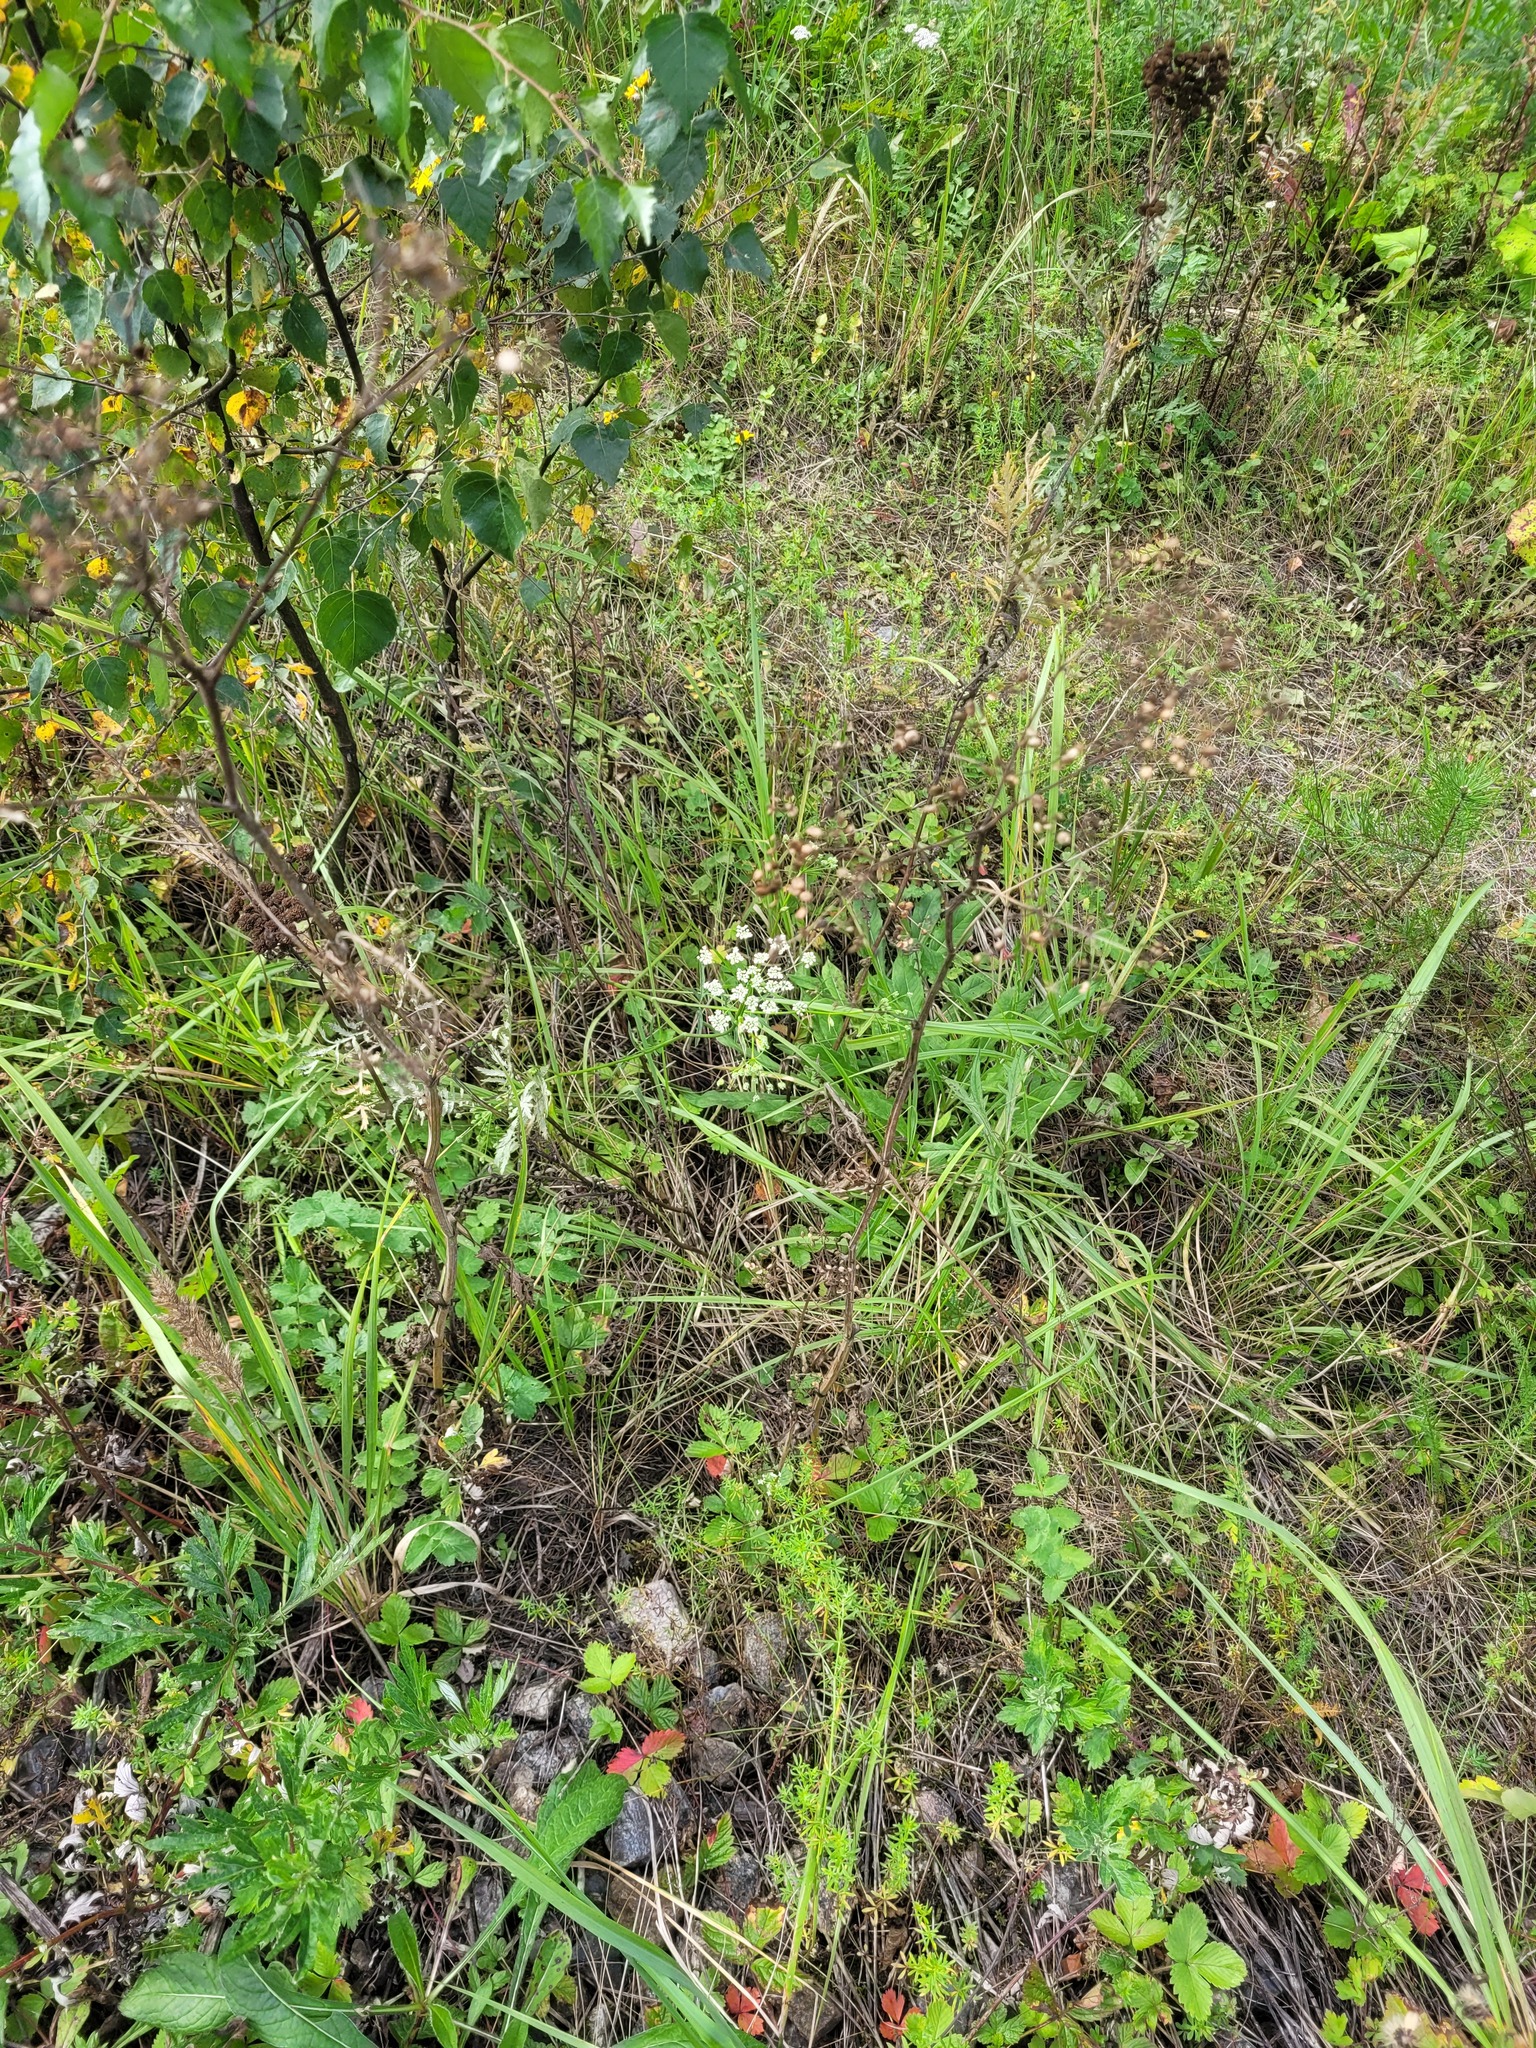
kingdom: Plantae
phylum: Tracheophyta
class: Magnoliopsida
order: Apiales
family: Apiaceae
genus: Pimpinella
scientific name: Pimpinella saxifraga
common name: Burnet-saxifrage
